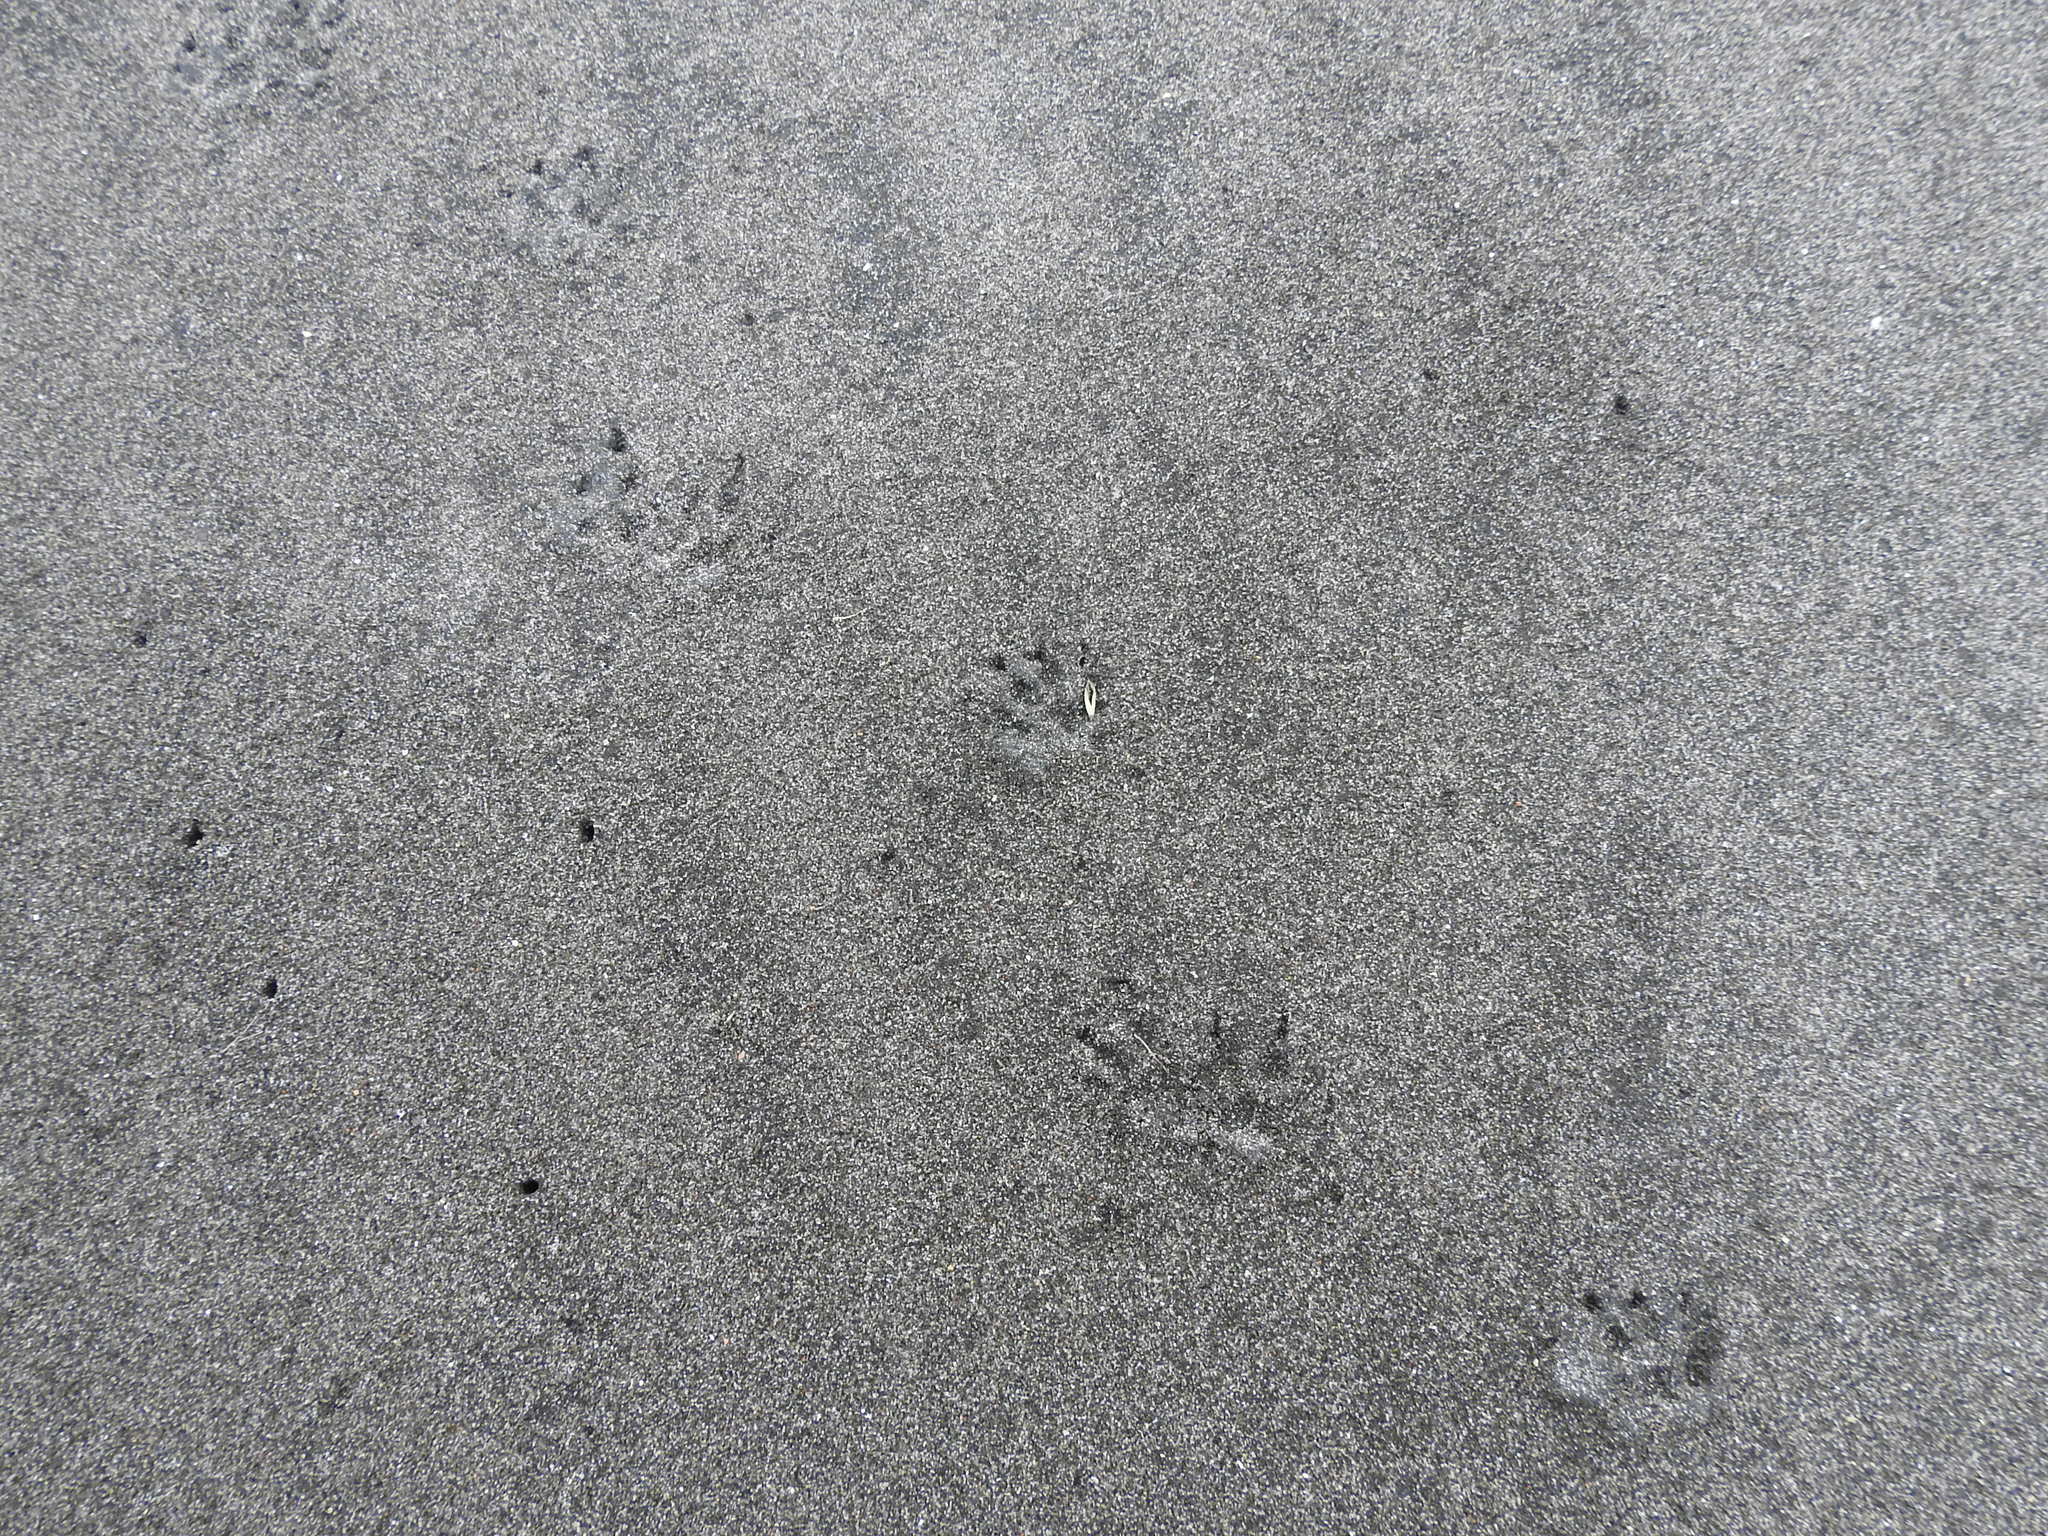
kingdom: Animalia
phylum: Chordata
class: Mammalia
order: Erinaceomorpha
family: Erinaceidae
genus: Erinaceus
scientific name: Erinaceus europaeus
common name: West european hedgehog
